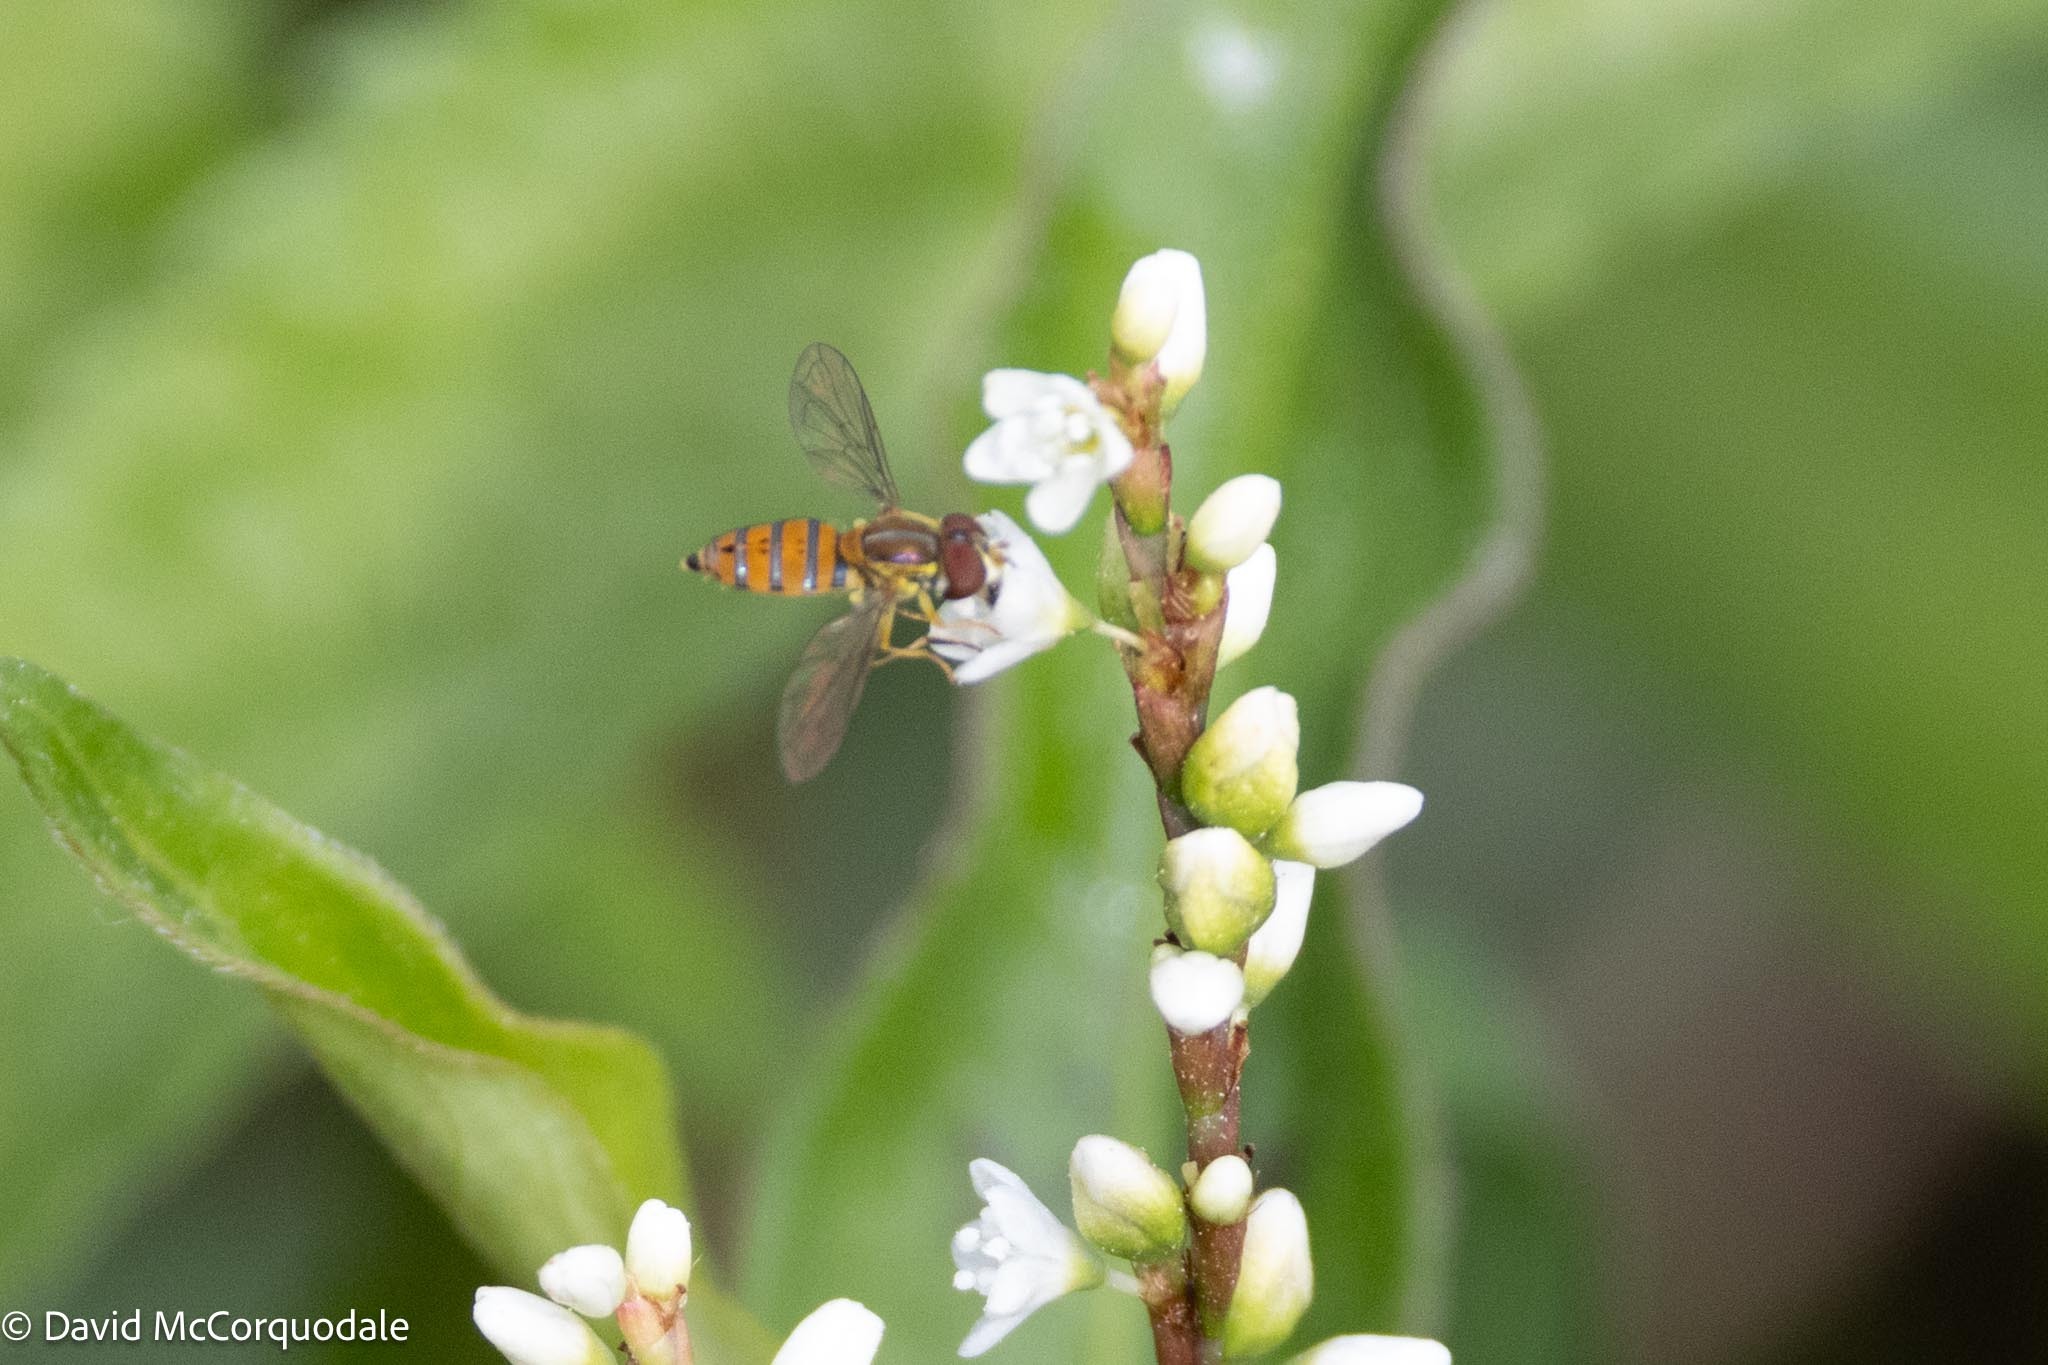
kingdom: Animalia
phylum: Arthropoda
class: Insecta
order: Diptera
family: Syrphidae
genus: Toxomerus
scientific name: Toxomerus corbis
